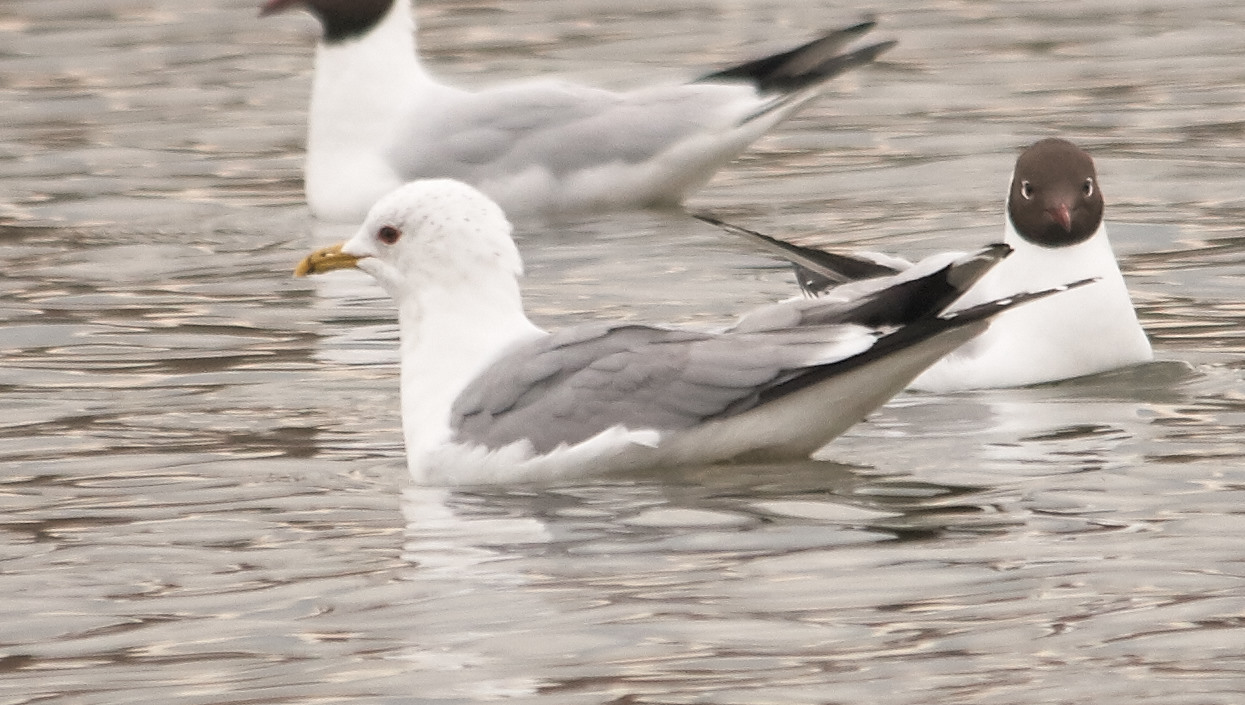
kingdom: Animalia
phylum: Chordata
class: Aves
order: Charadriiformes
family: Laridae
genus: Larus
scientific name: Larus canus
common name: Mew gull
